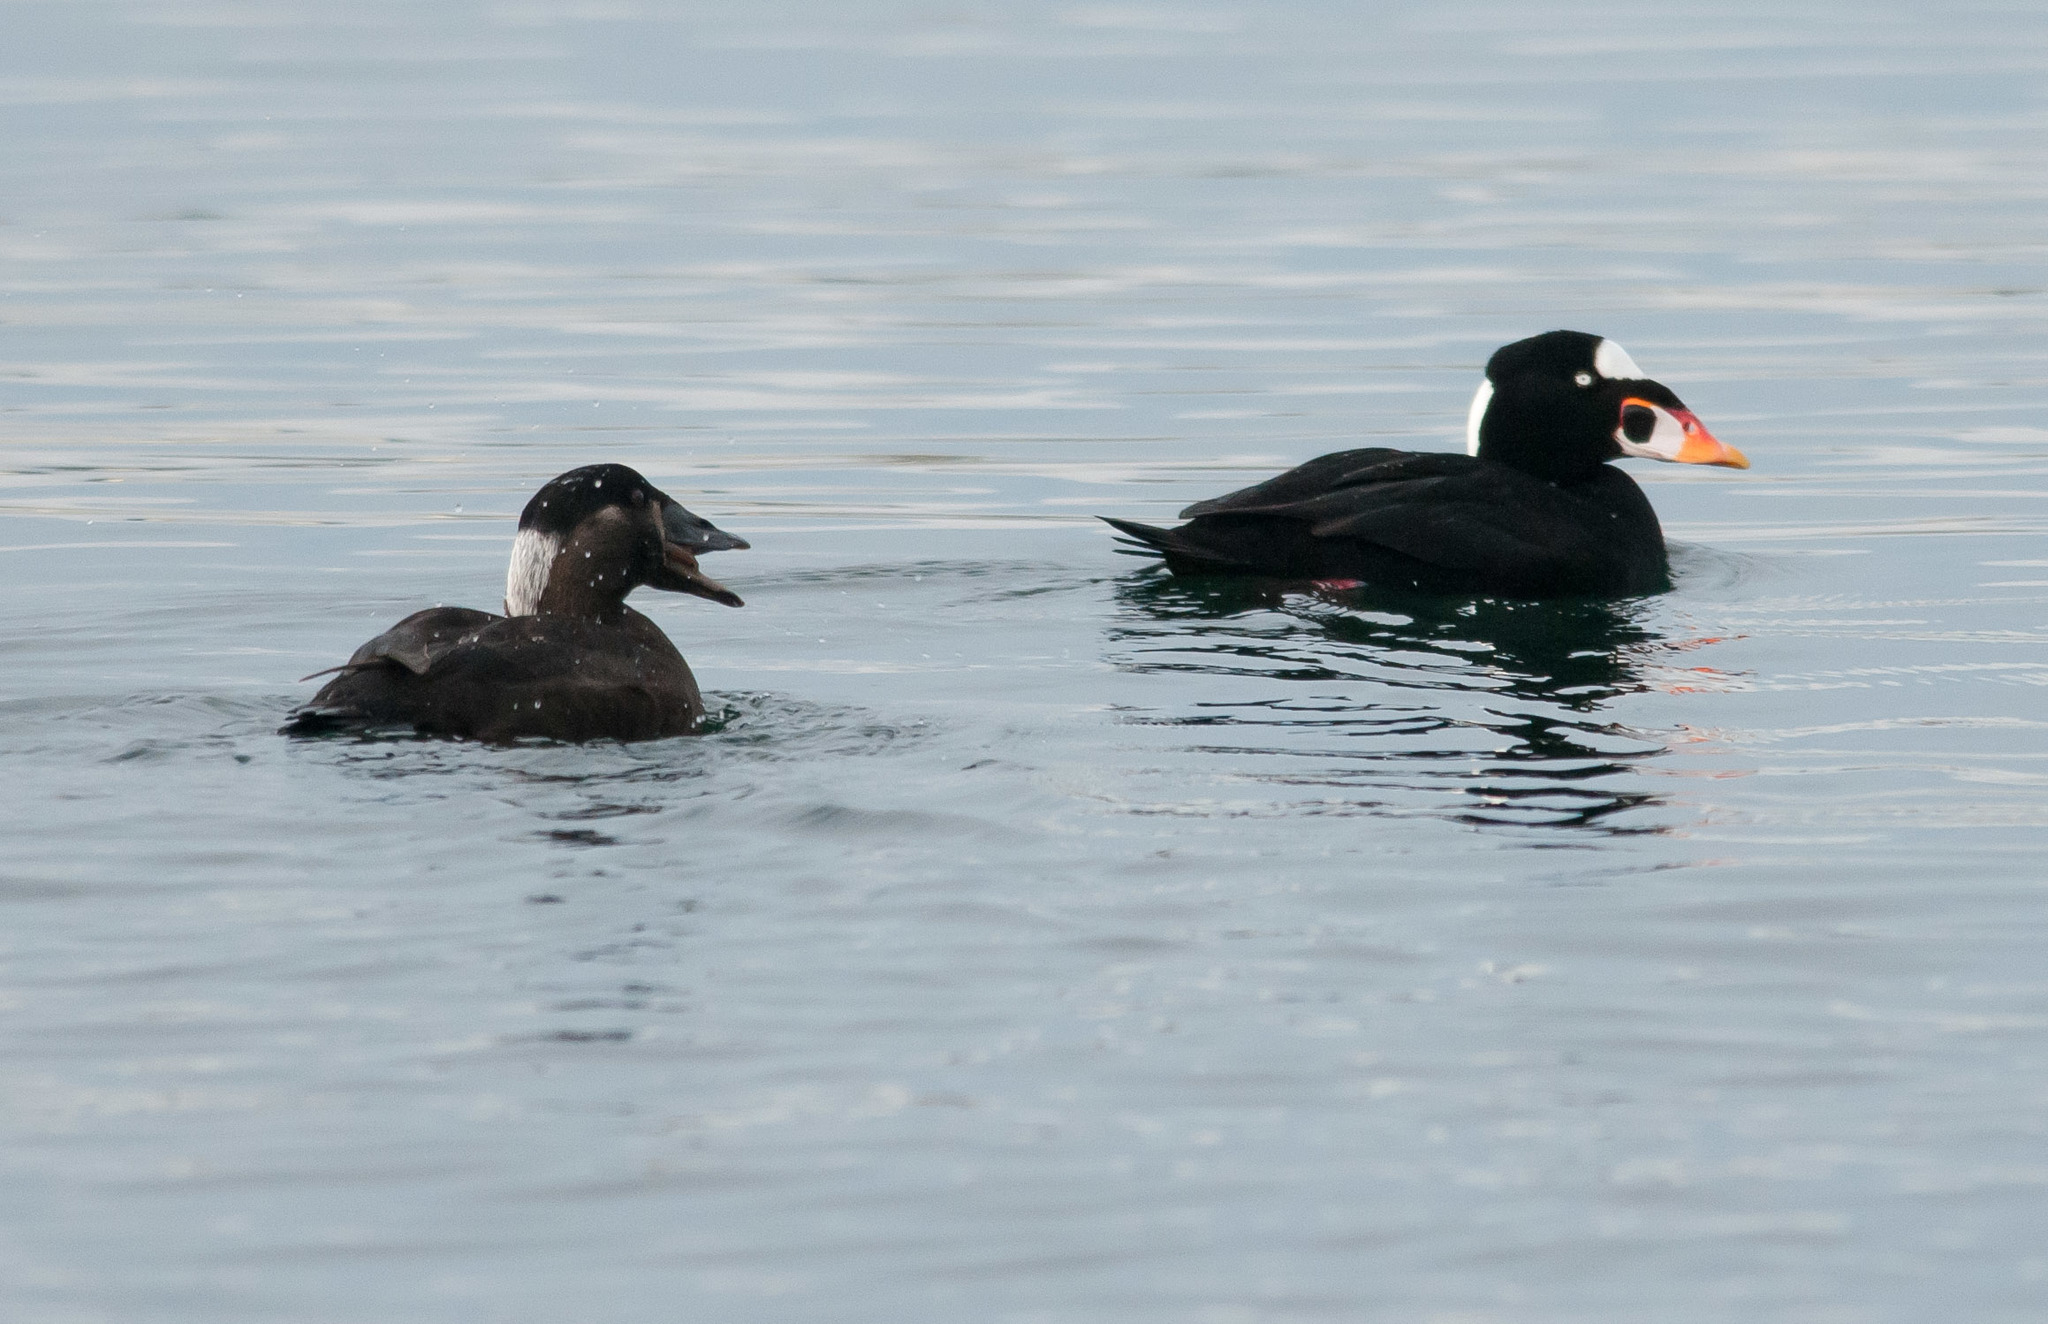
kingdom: Animalia
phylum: Chordata
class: Aves
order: Anseriformes
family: Anatidae
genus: Melanitta
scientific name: Melanitta perspicillata
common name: Surf scoter
